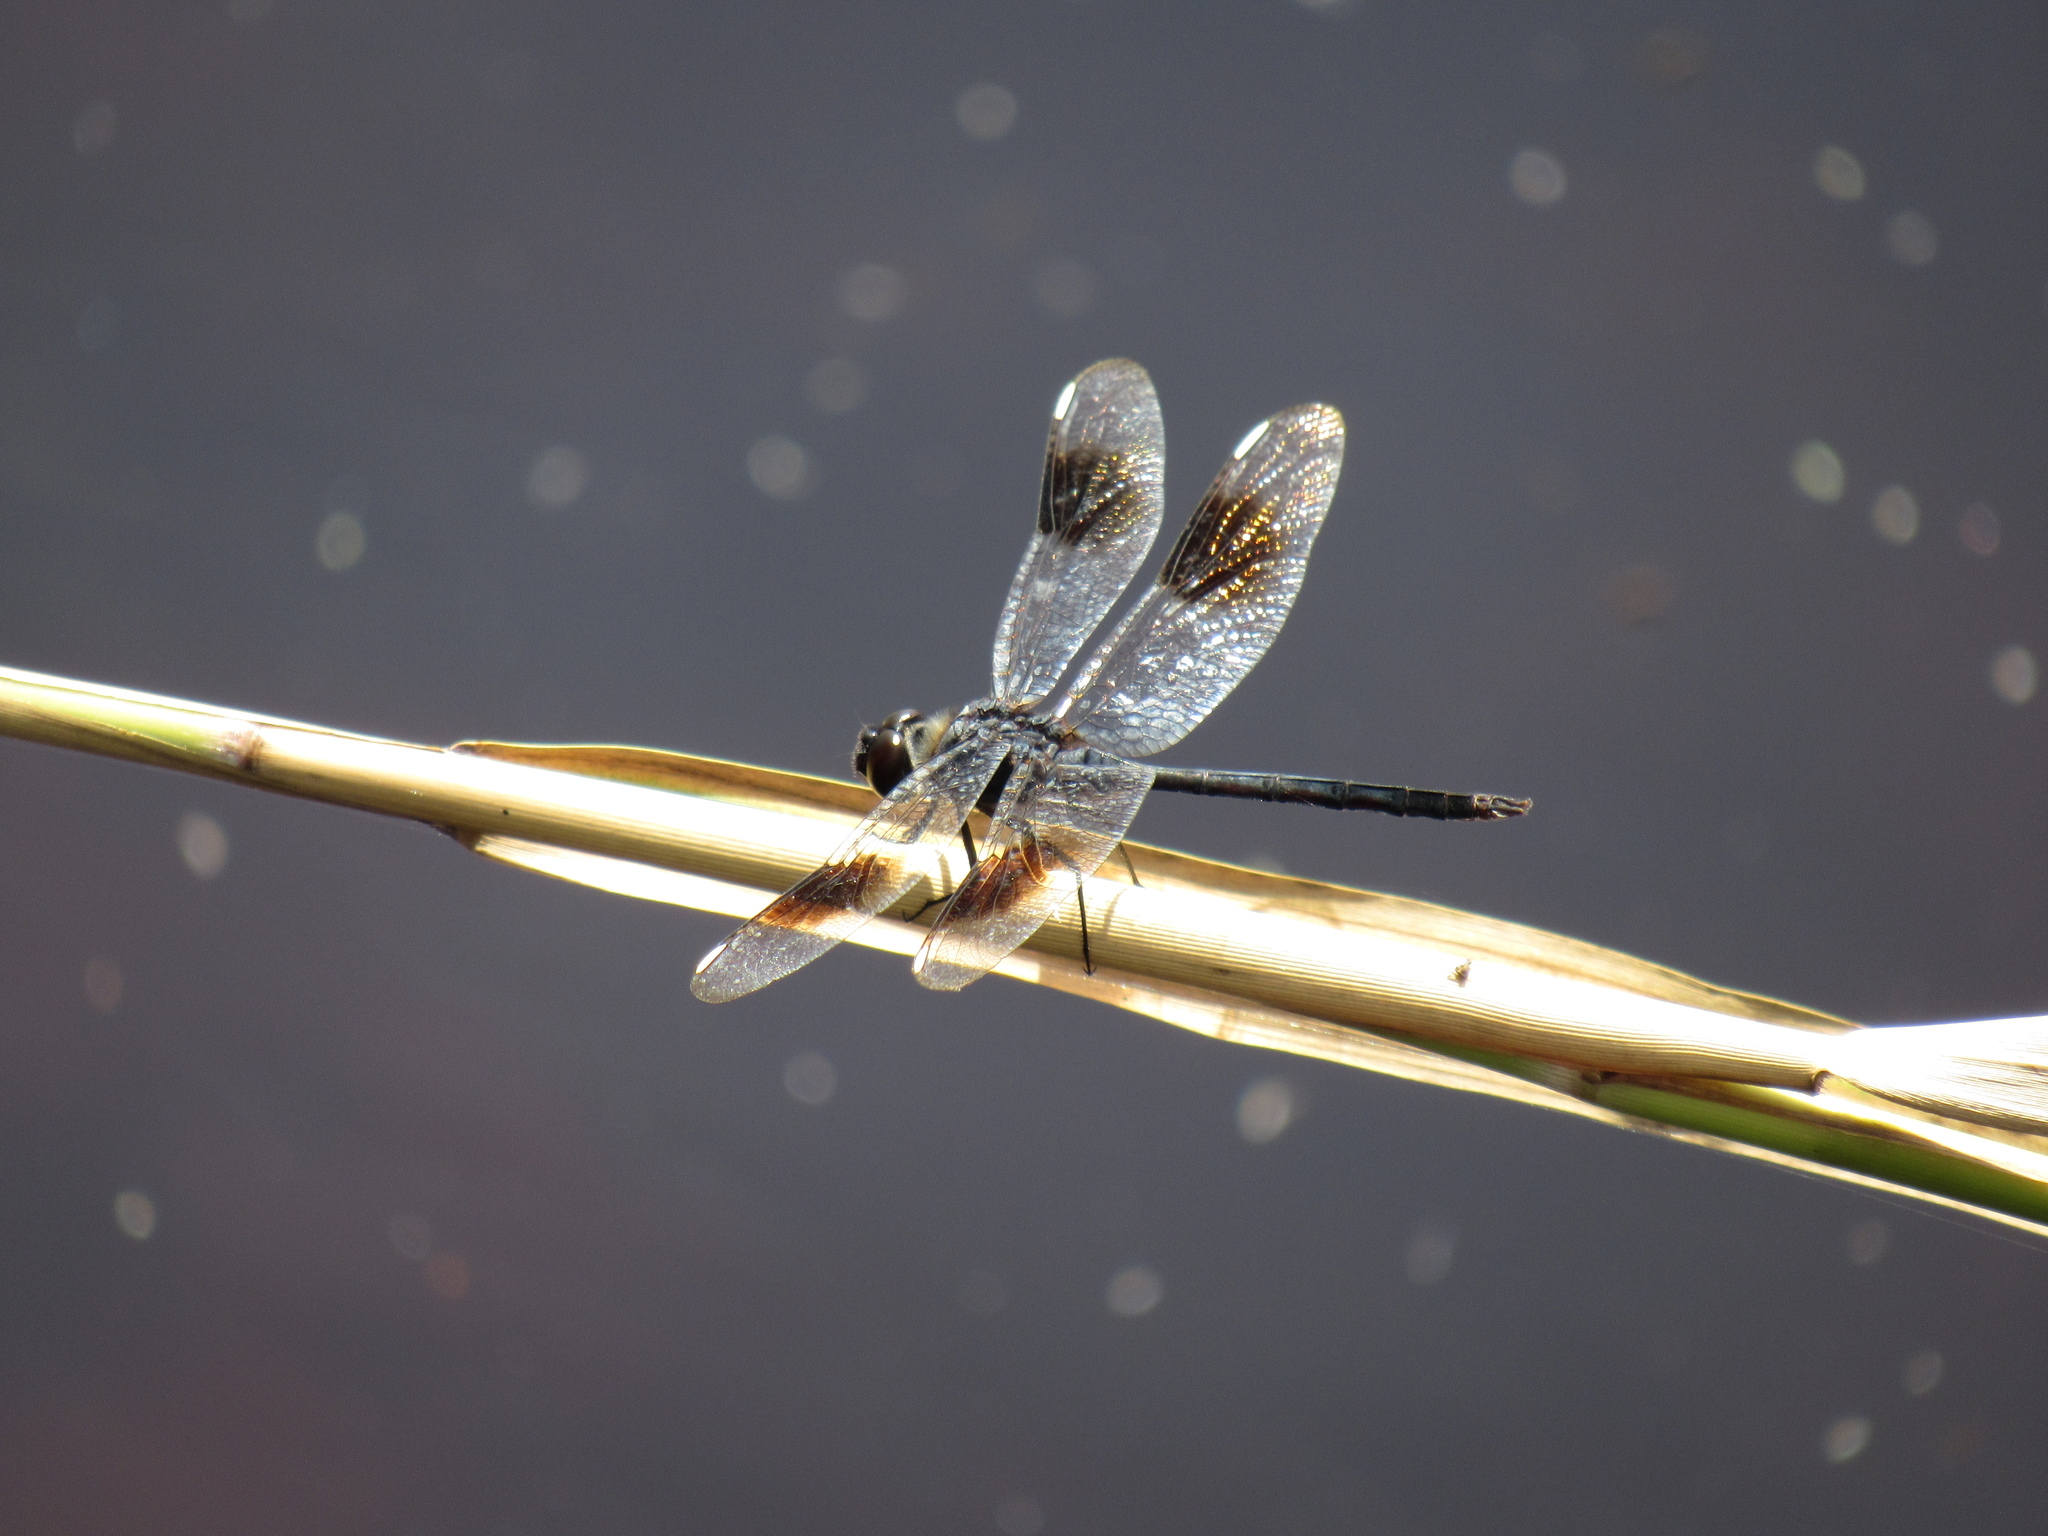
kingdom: Animalia
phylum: Arthropoda
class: Insecta
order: Odonata
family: Libellulidae
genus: Brachymesia
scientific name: Brachymesia gravida
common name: Four-spotted pennant
